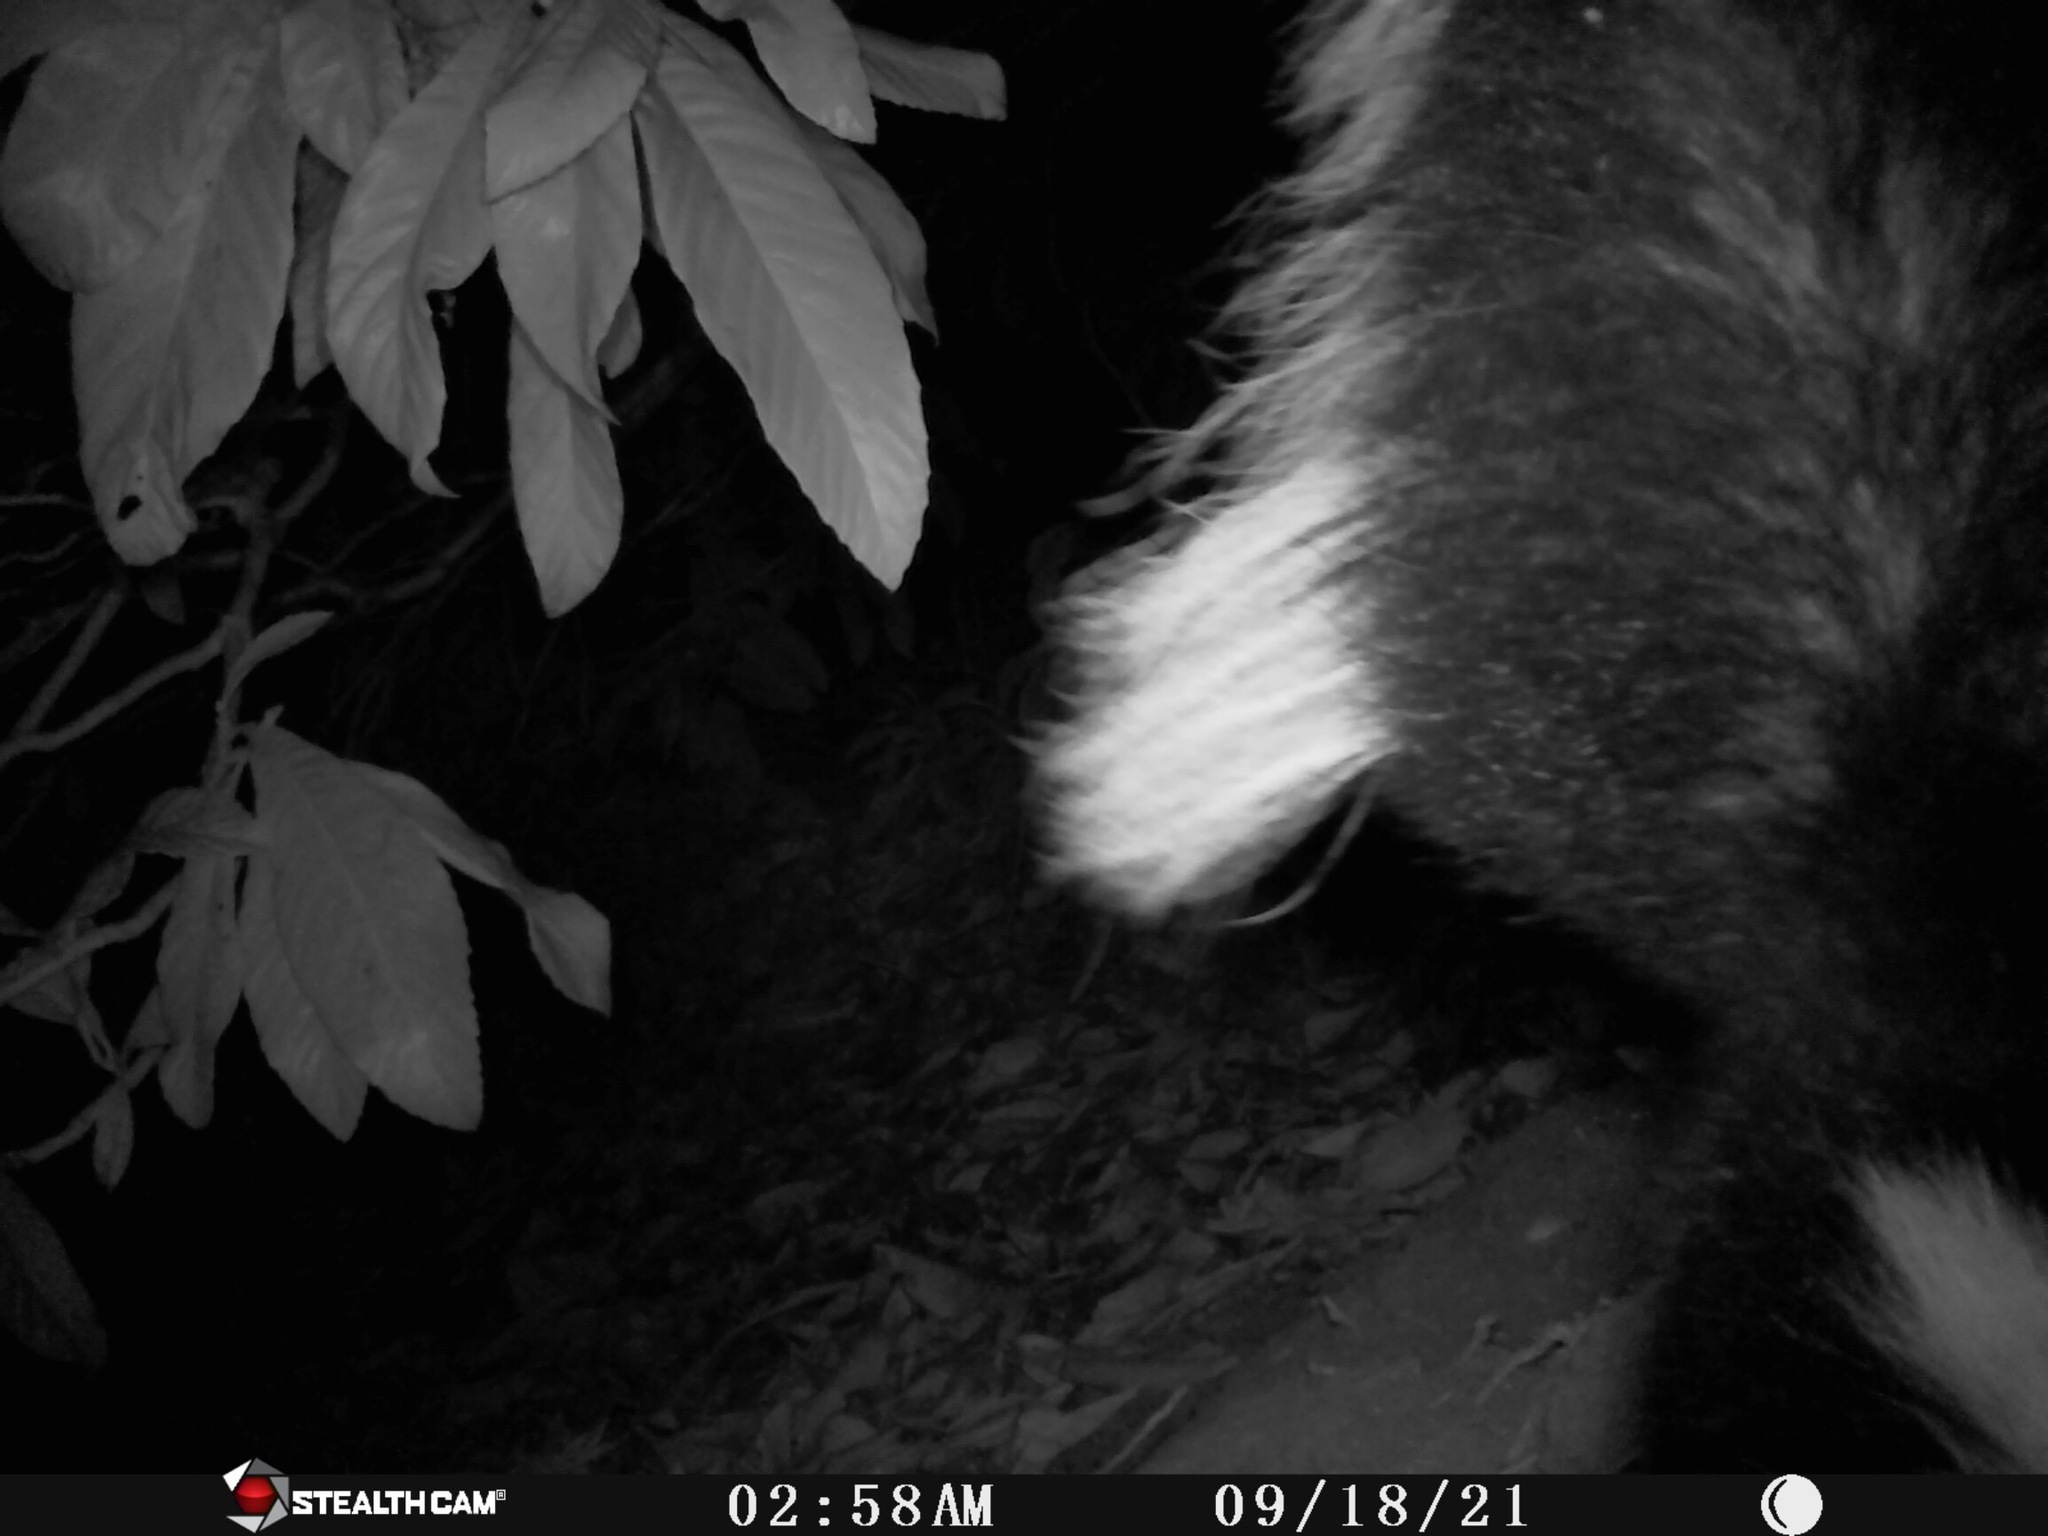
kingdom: Animalia
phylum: Chordata
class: Mammalia
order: Carnivora
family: Mephitidae
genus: Mephitis
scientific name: Mephitis mephitis
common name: Striped skunk
